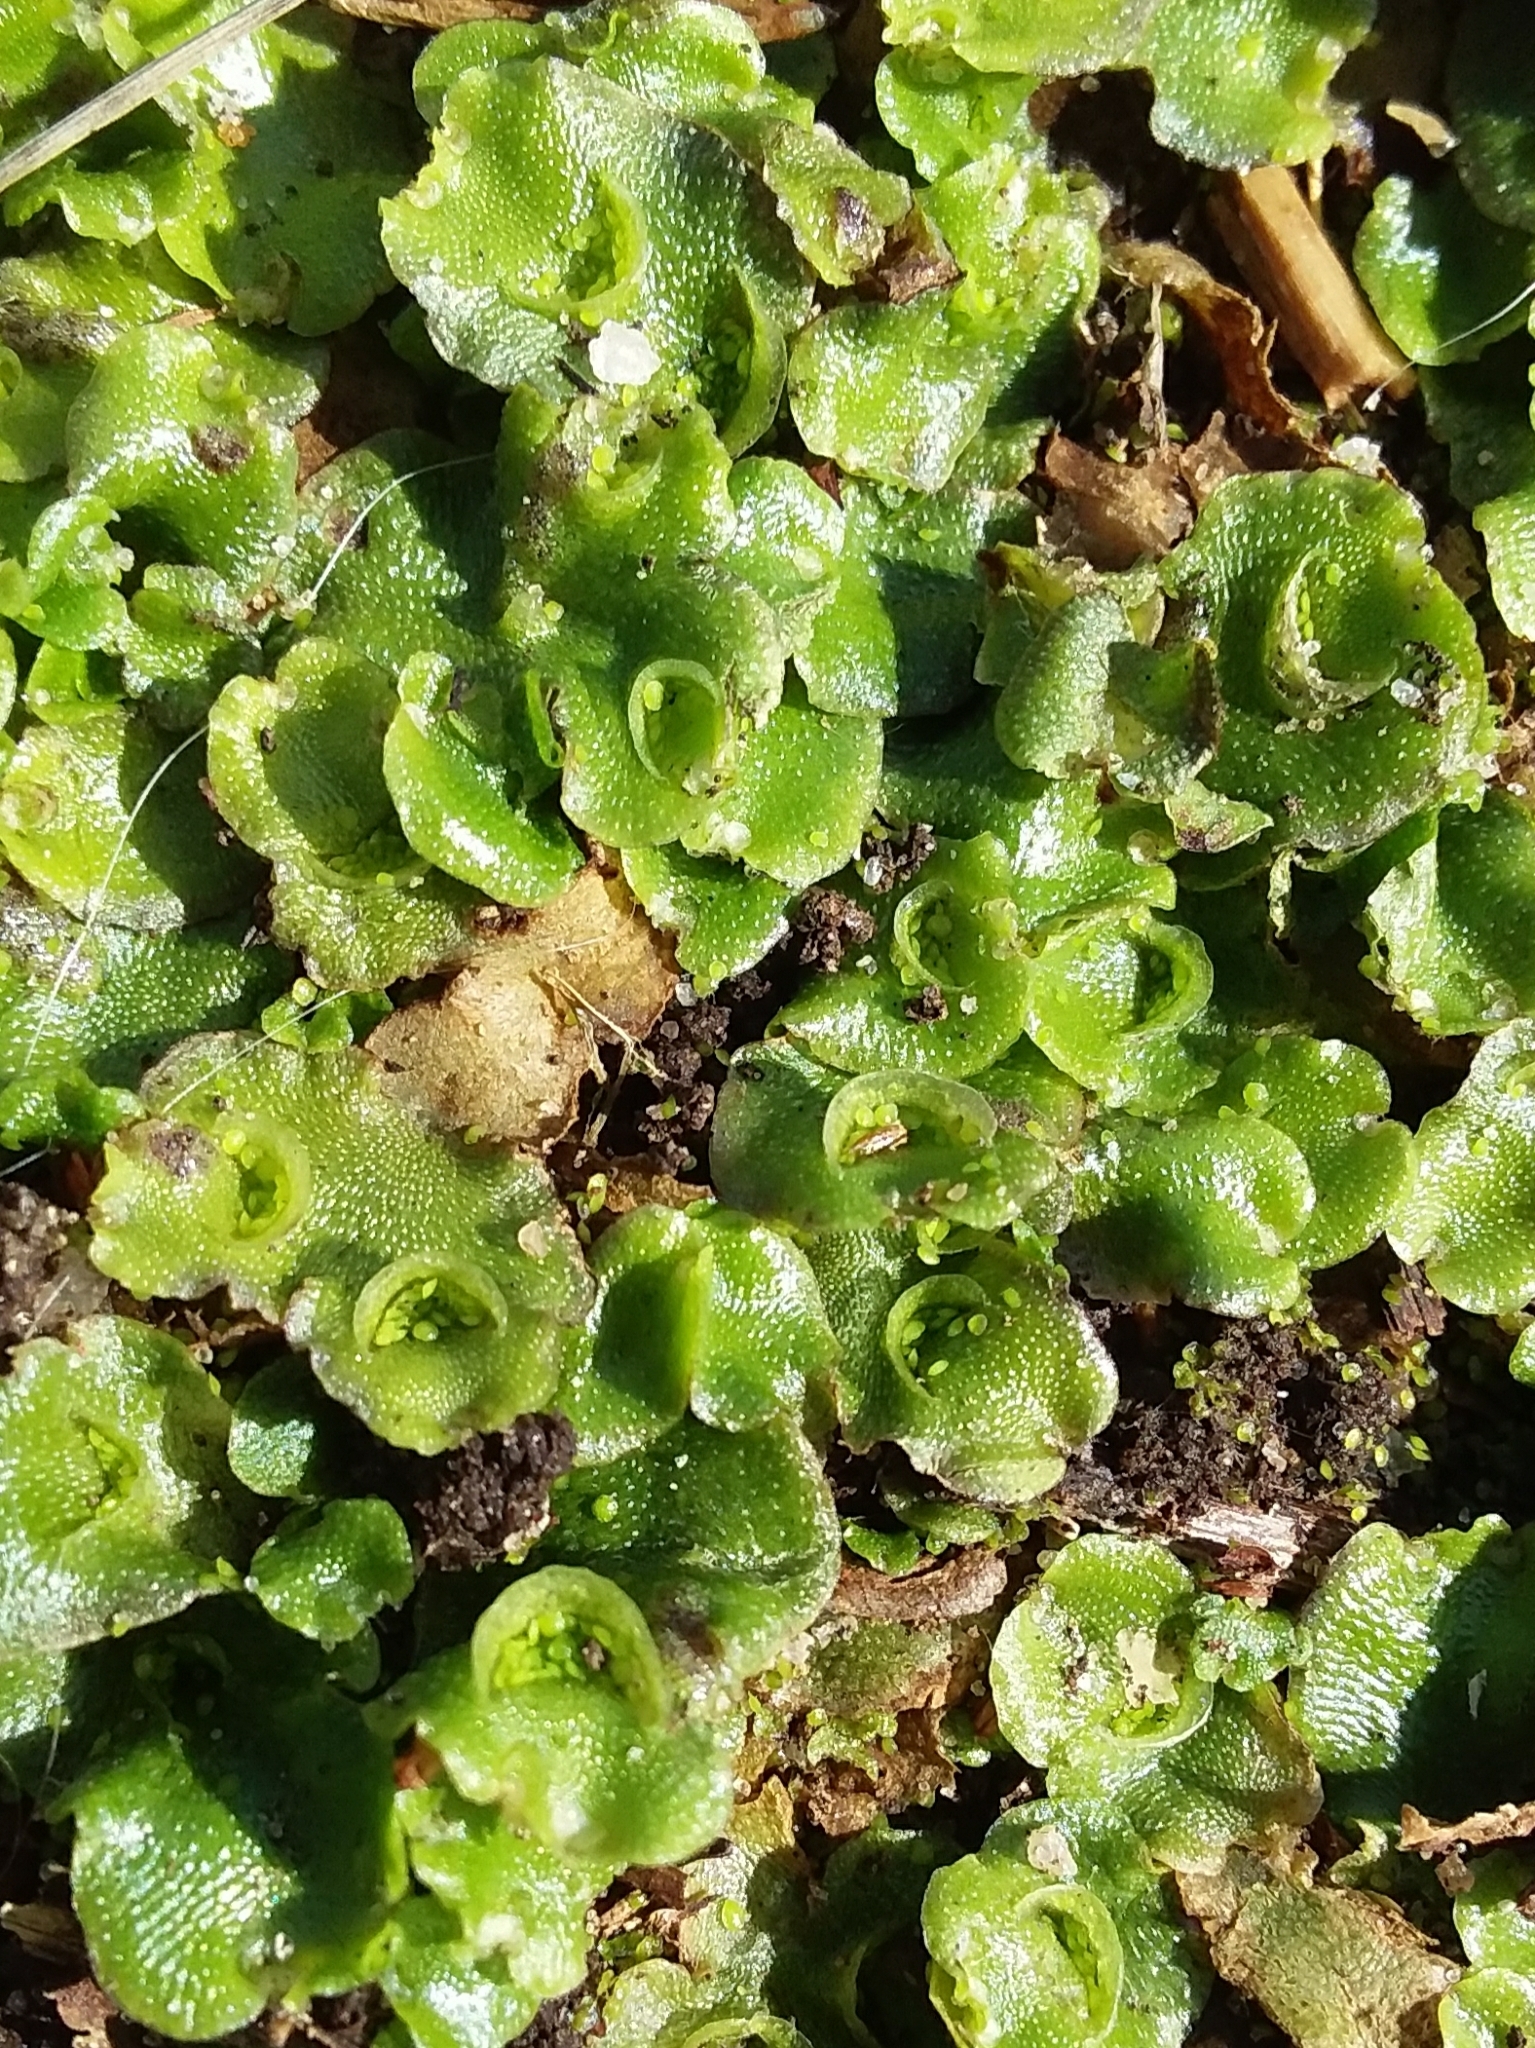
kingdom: Plantae
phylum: Marchantiophyta
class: Marchantiopsida
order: Lunulariales
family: Lunulariaceae
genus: Lunularia
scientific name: Lunularia cruciata
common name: Crescent-cup liverwort
